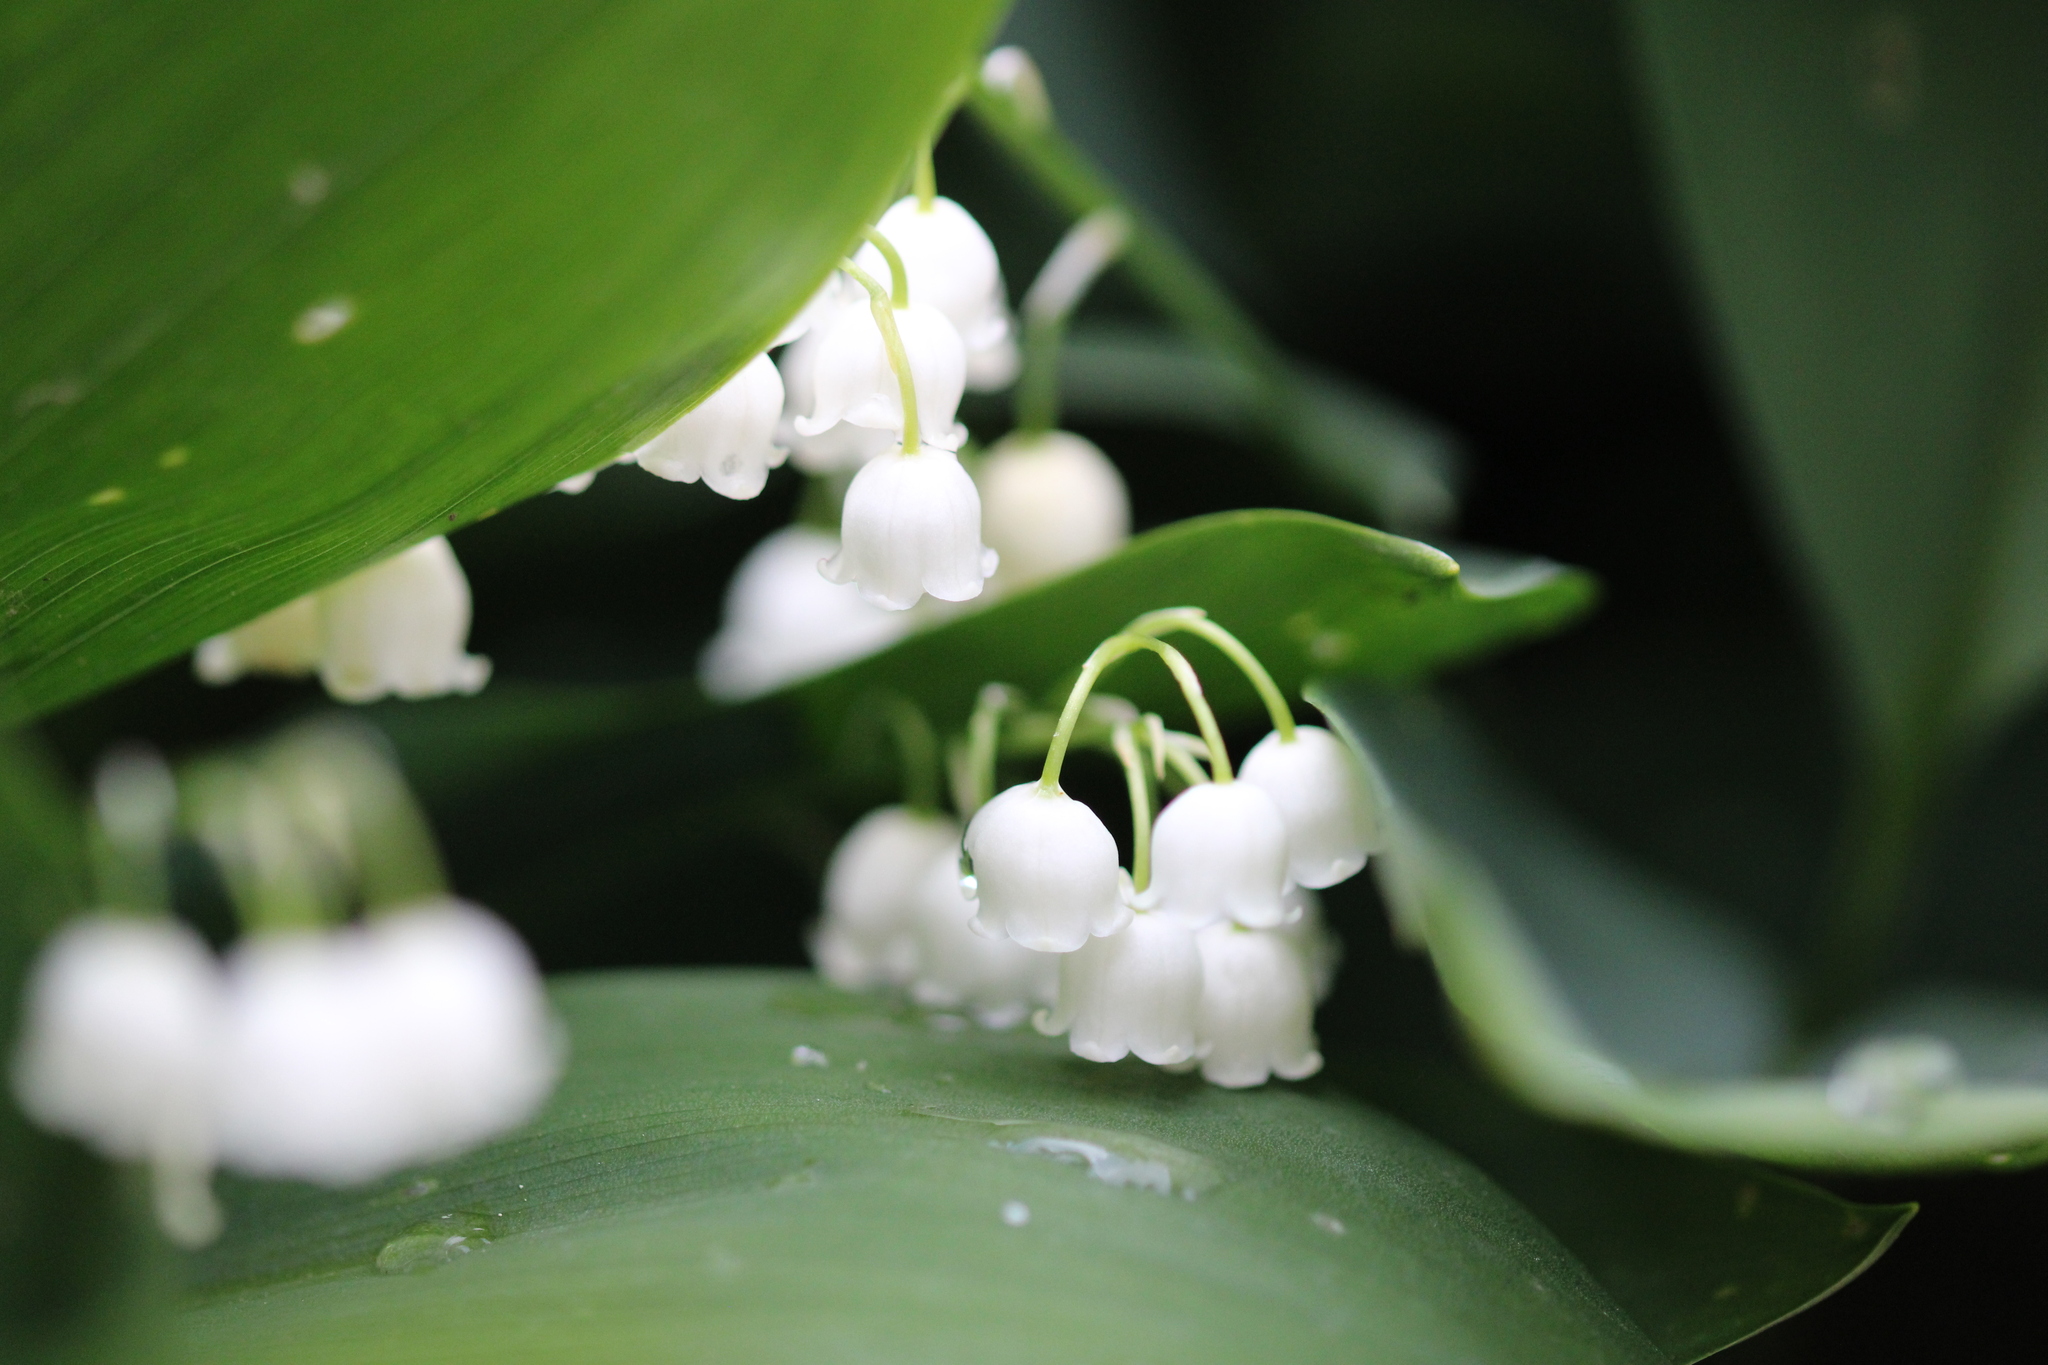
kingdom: Plantae
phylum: Tracheophyta
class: Liliopsida
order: Asparagales
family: Asparagaceae
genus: Convallaria
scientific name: Convallaria majalis
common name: Lily-of-the-valley
